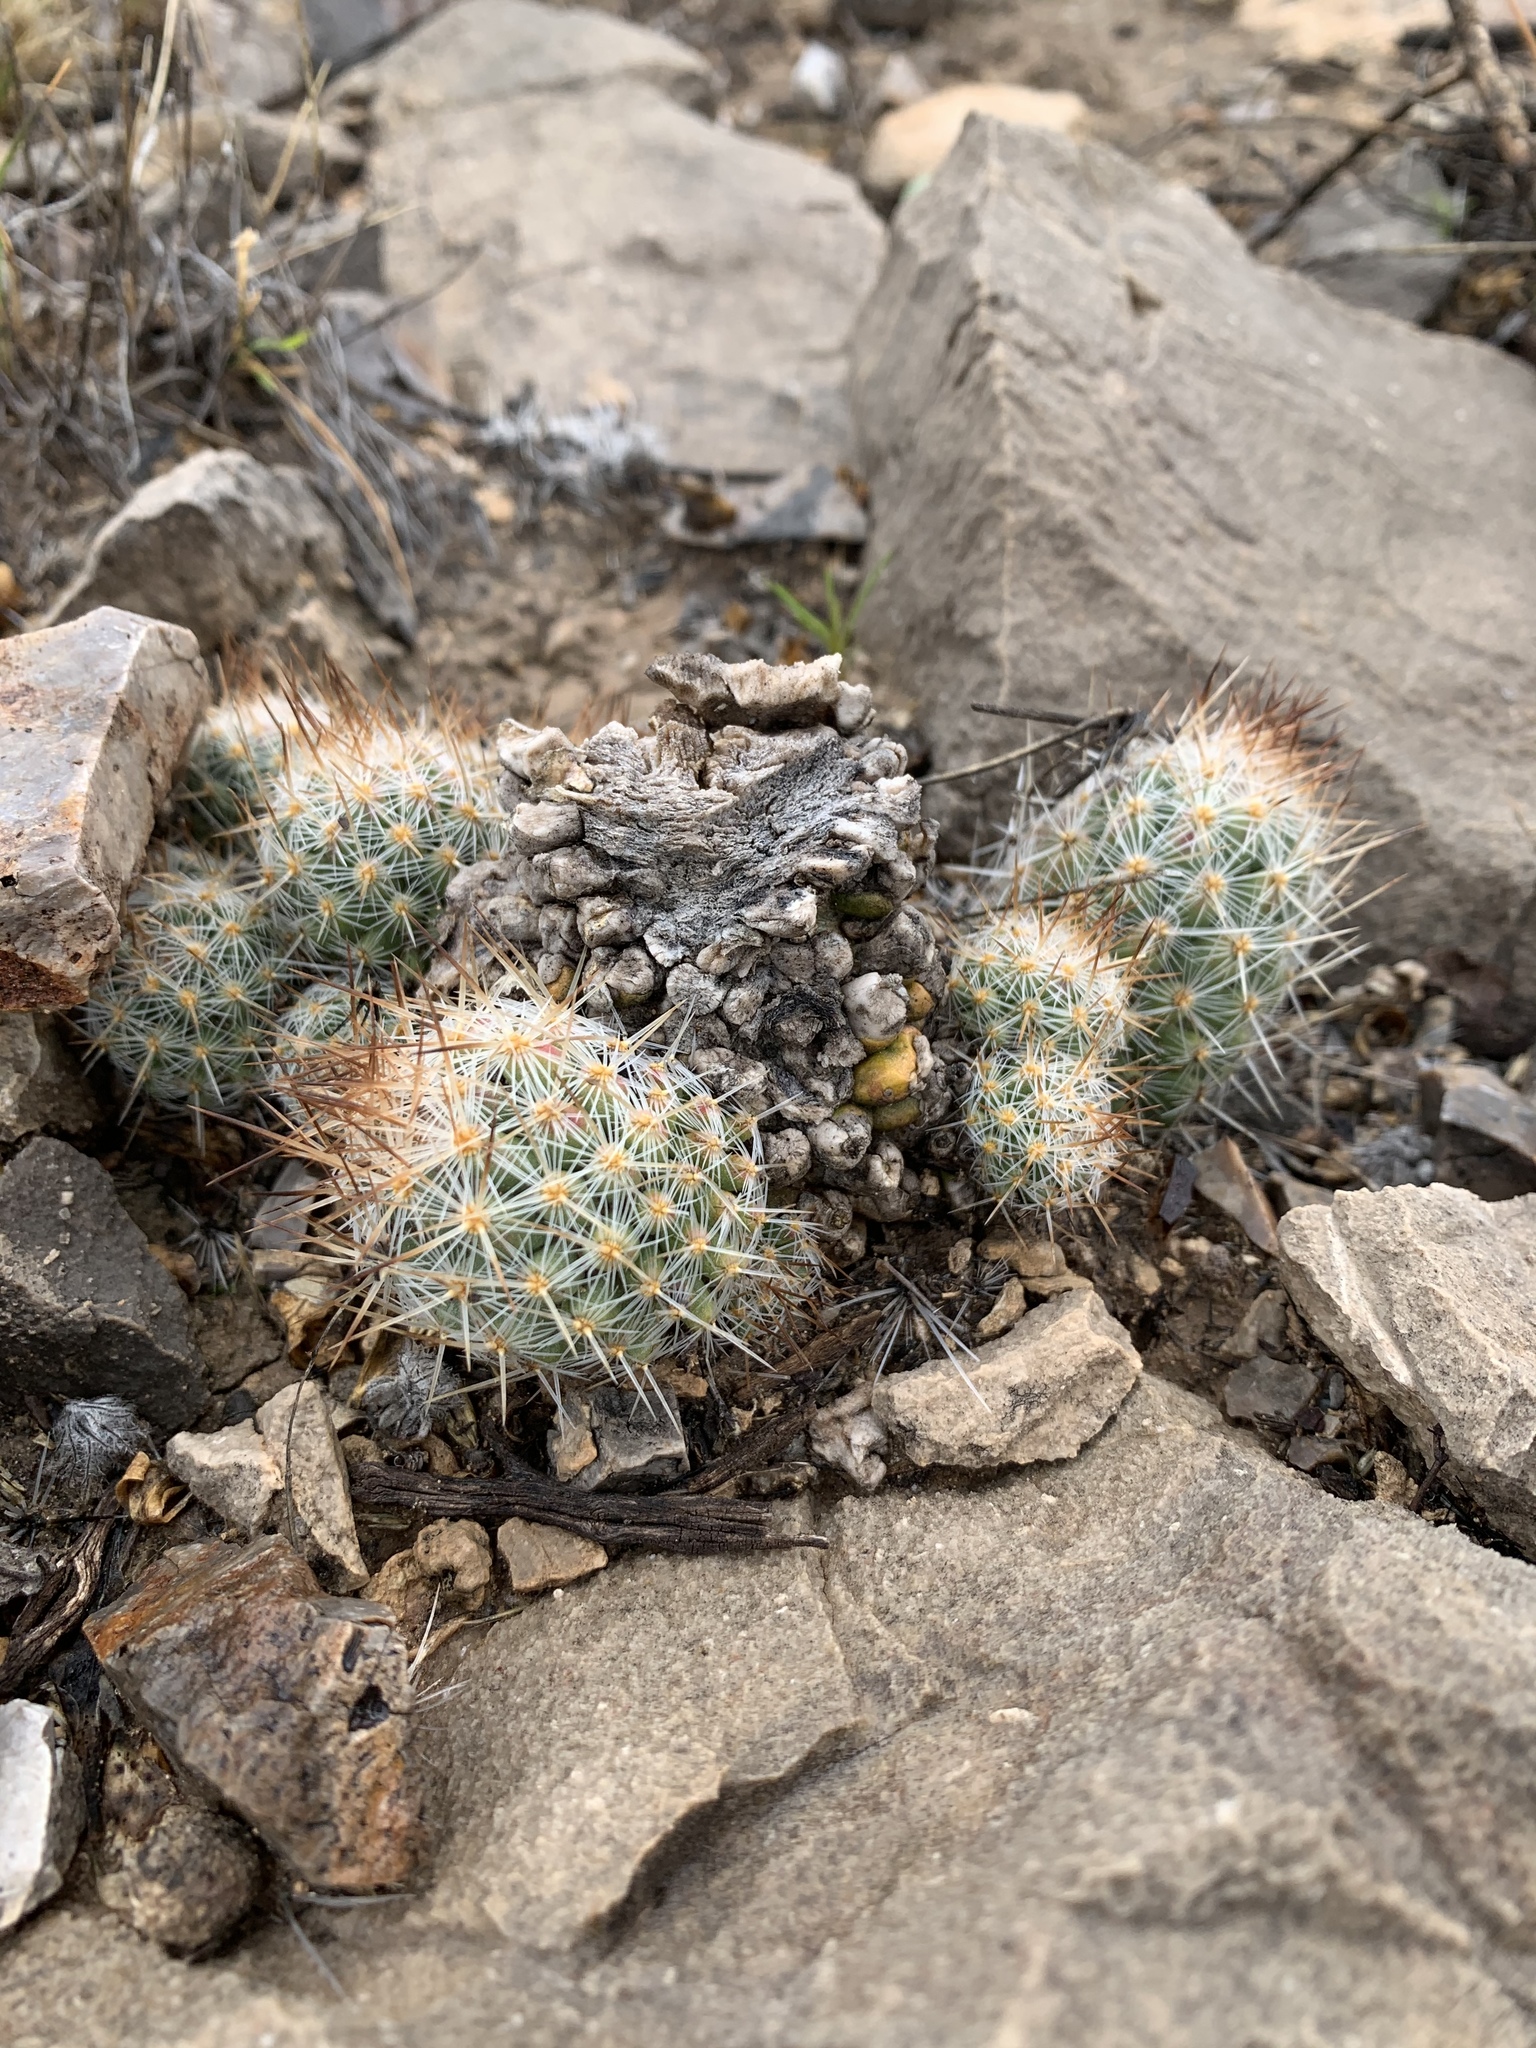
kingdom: Plantae
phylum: Tracheophyta
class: Magnoliopsida
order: Caryophyllales
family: Cactaceae
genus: Pelecyphora
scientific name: Pelecyphora tuberculosa
